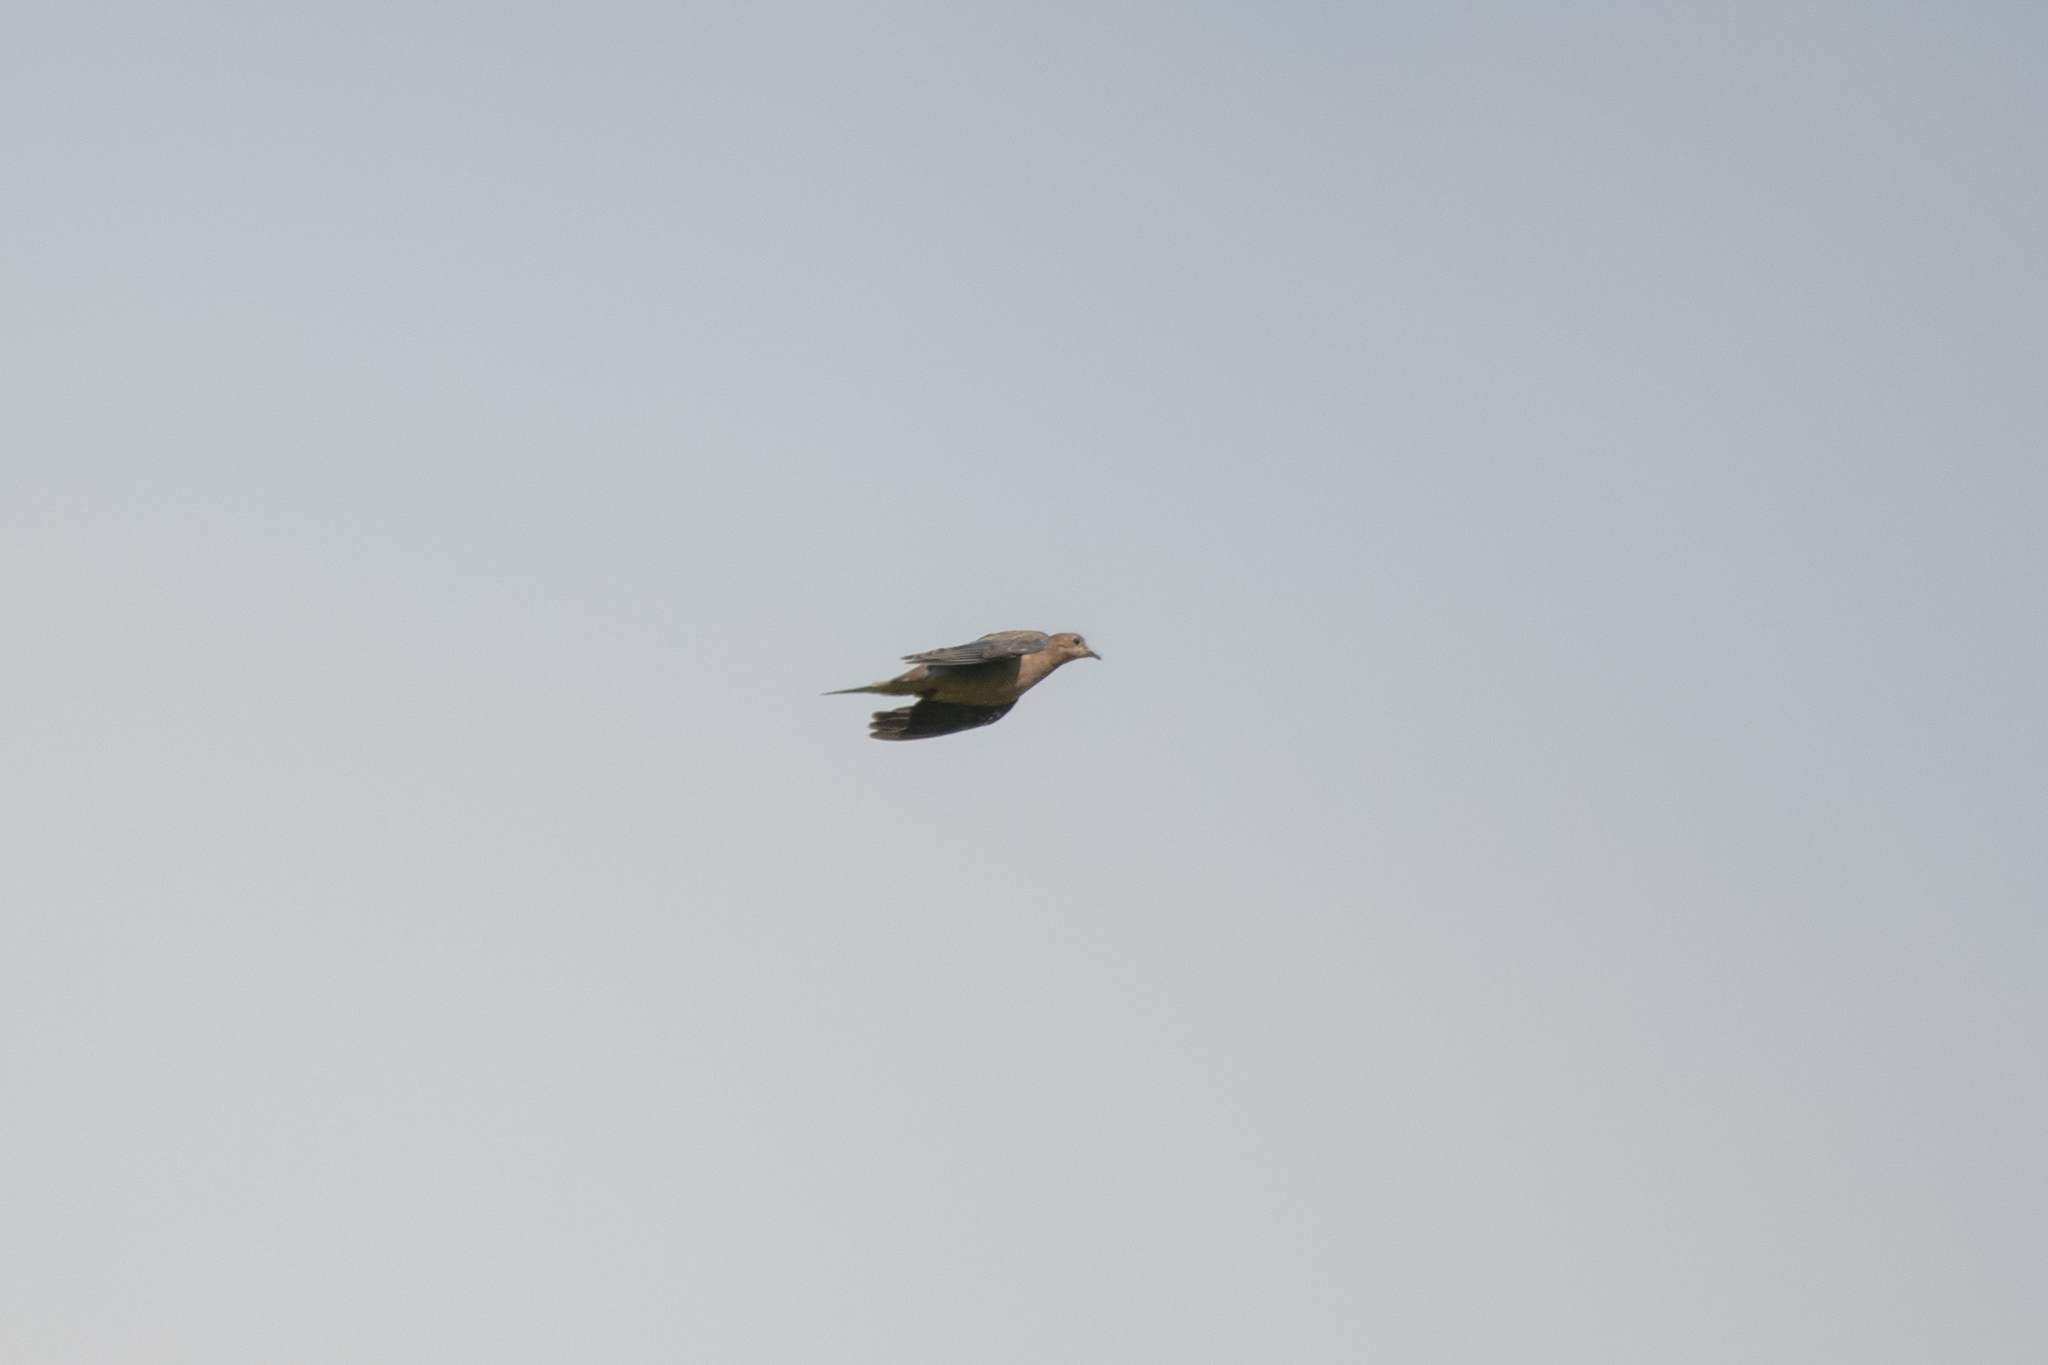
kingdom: Animalia
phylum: Chordata
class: Aves
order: Columbiformes
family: Columbidae
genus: Zenaida
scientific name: Zenaida macroura
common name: Mourning dove
